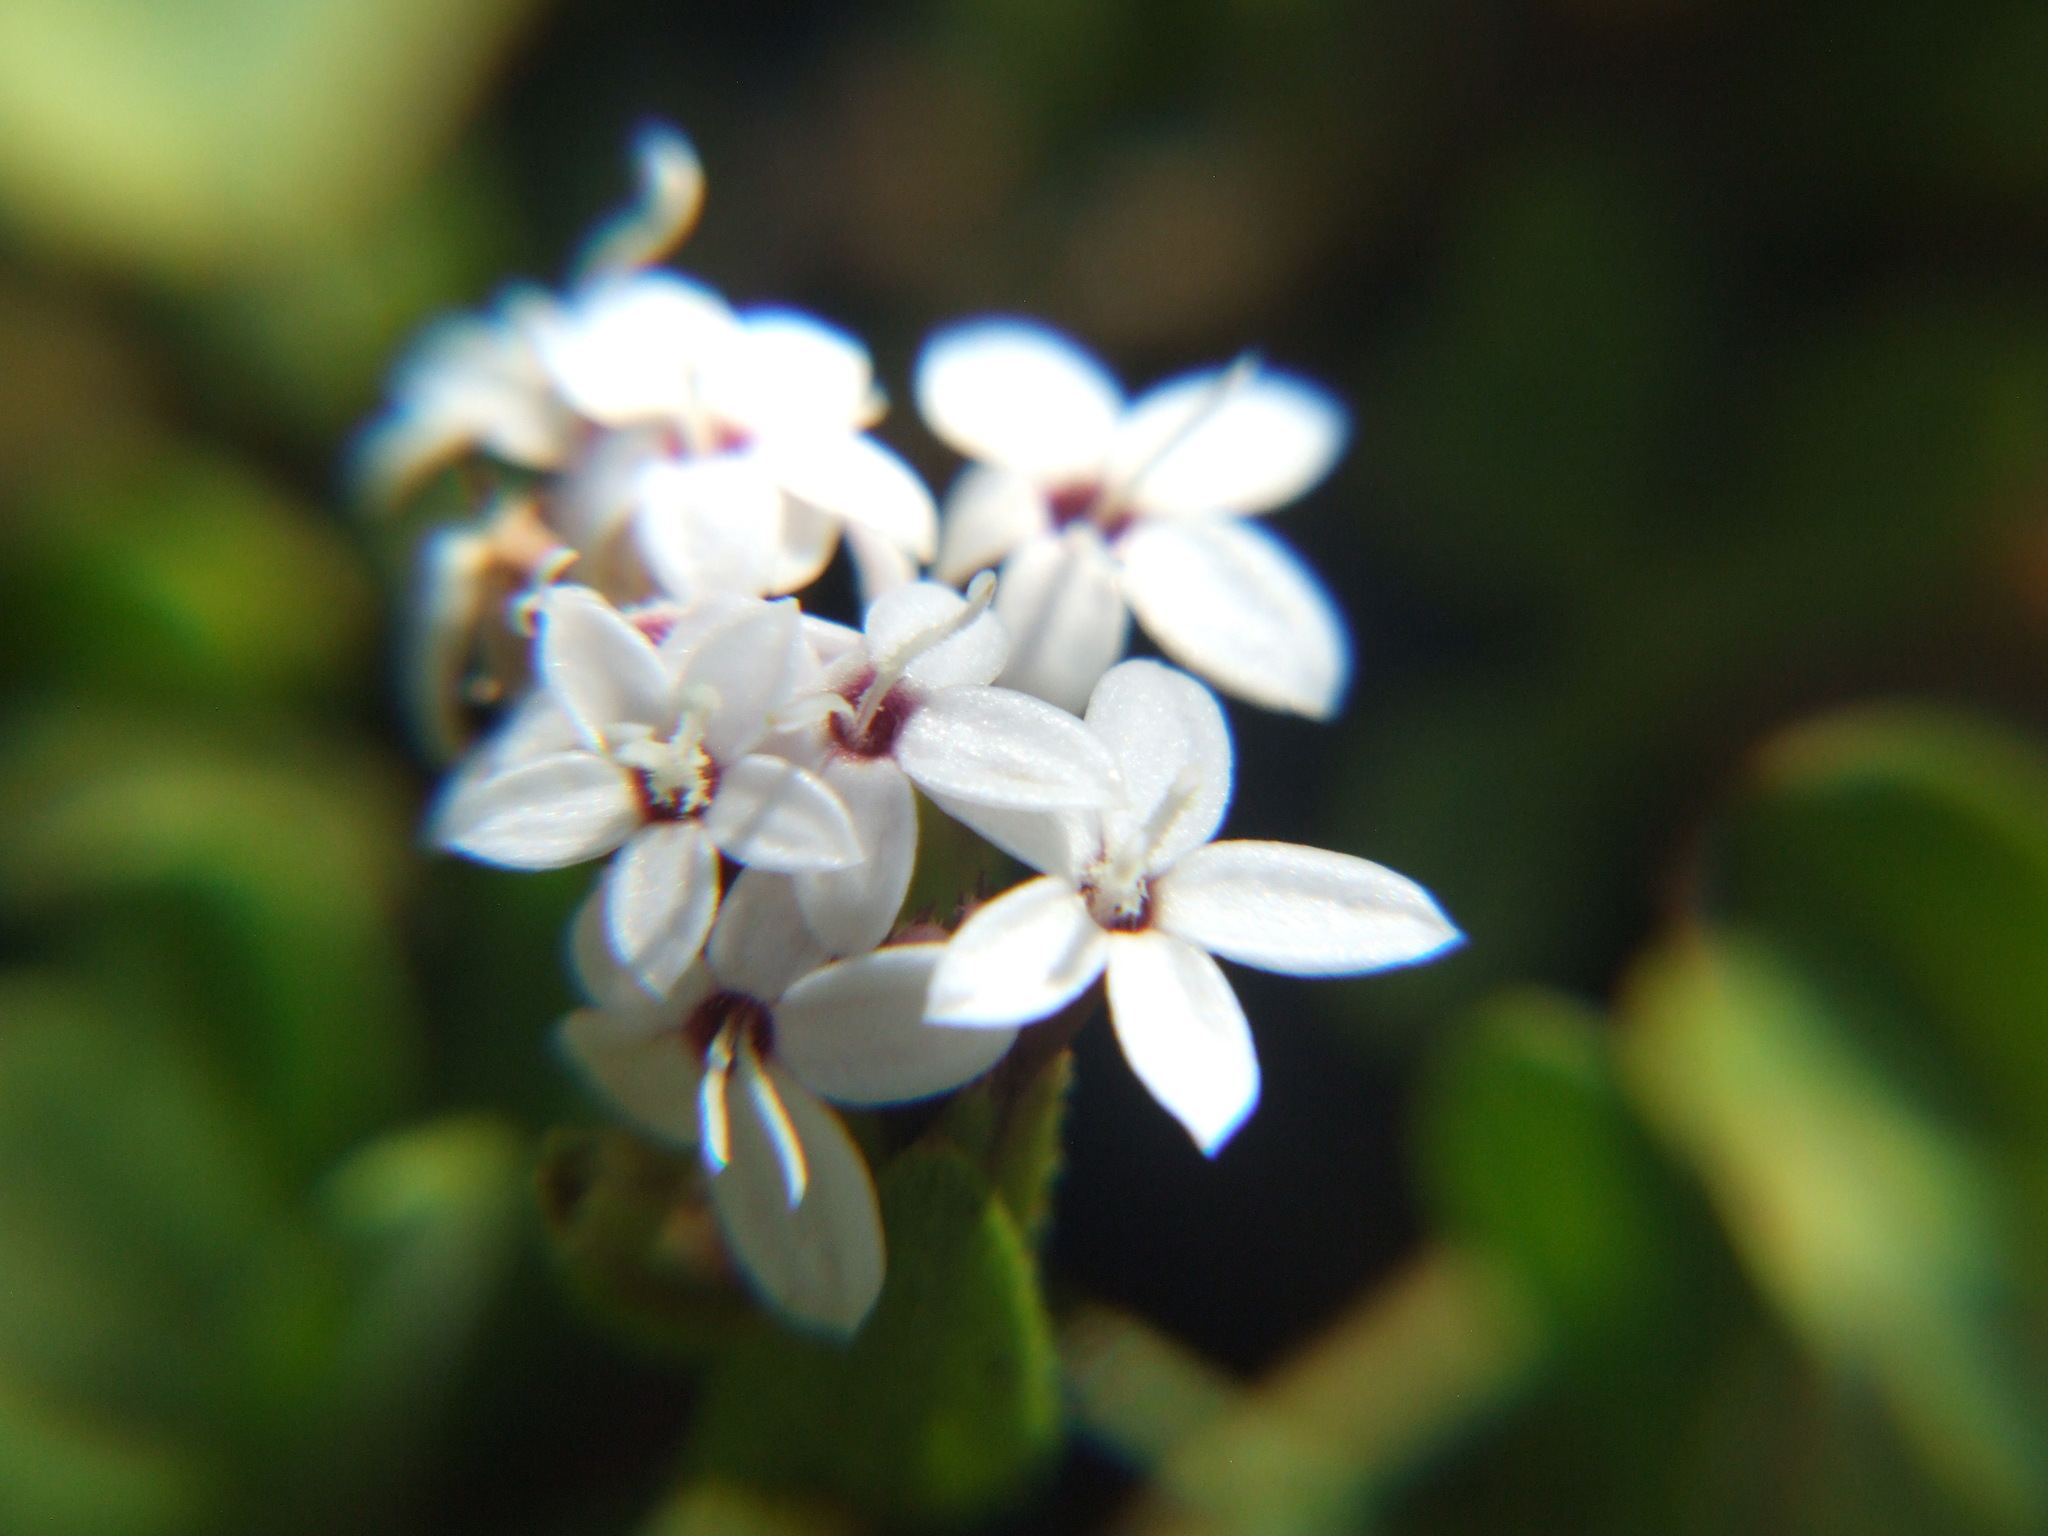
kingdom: Plantae
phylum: Tracheophyta
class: Magnoliopsida
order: Asterales
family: Asteraceae
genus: Stevia
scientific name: Stevia mandonii
